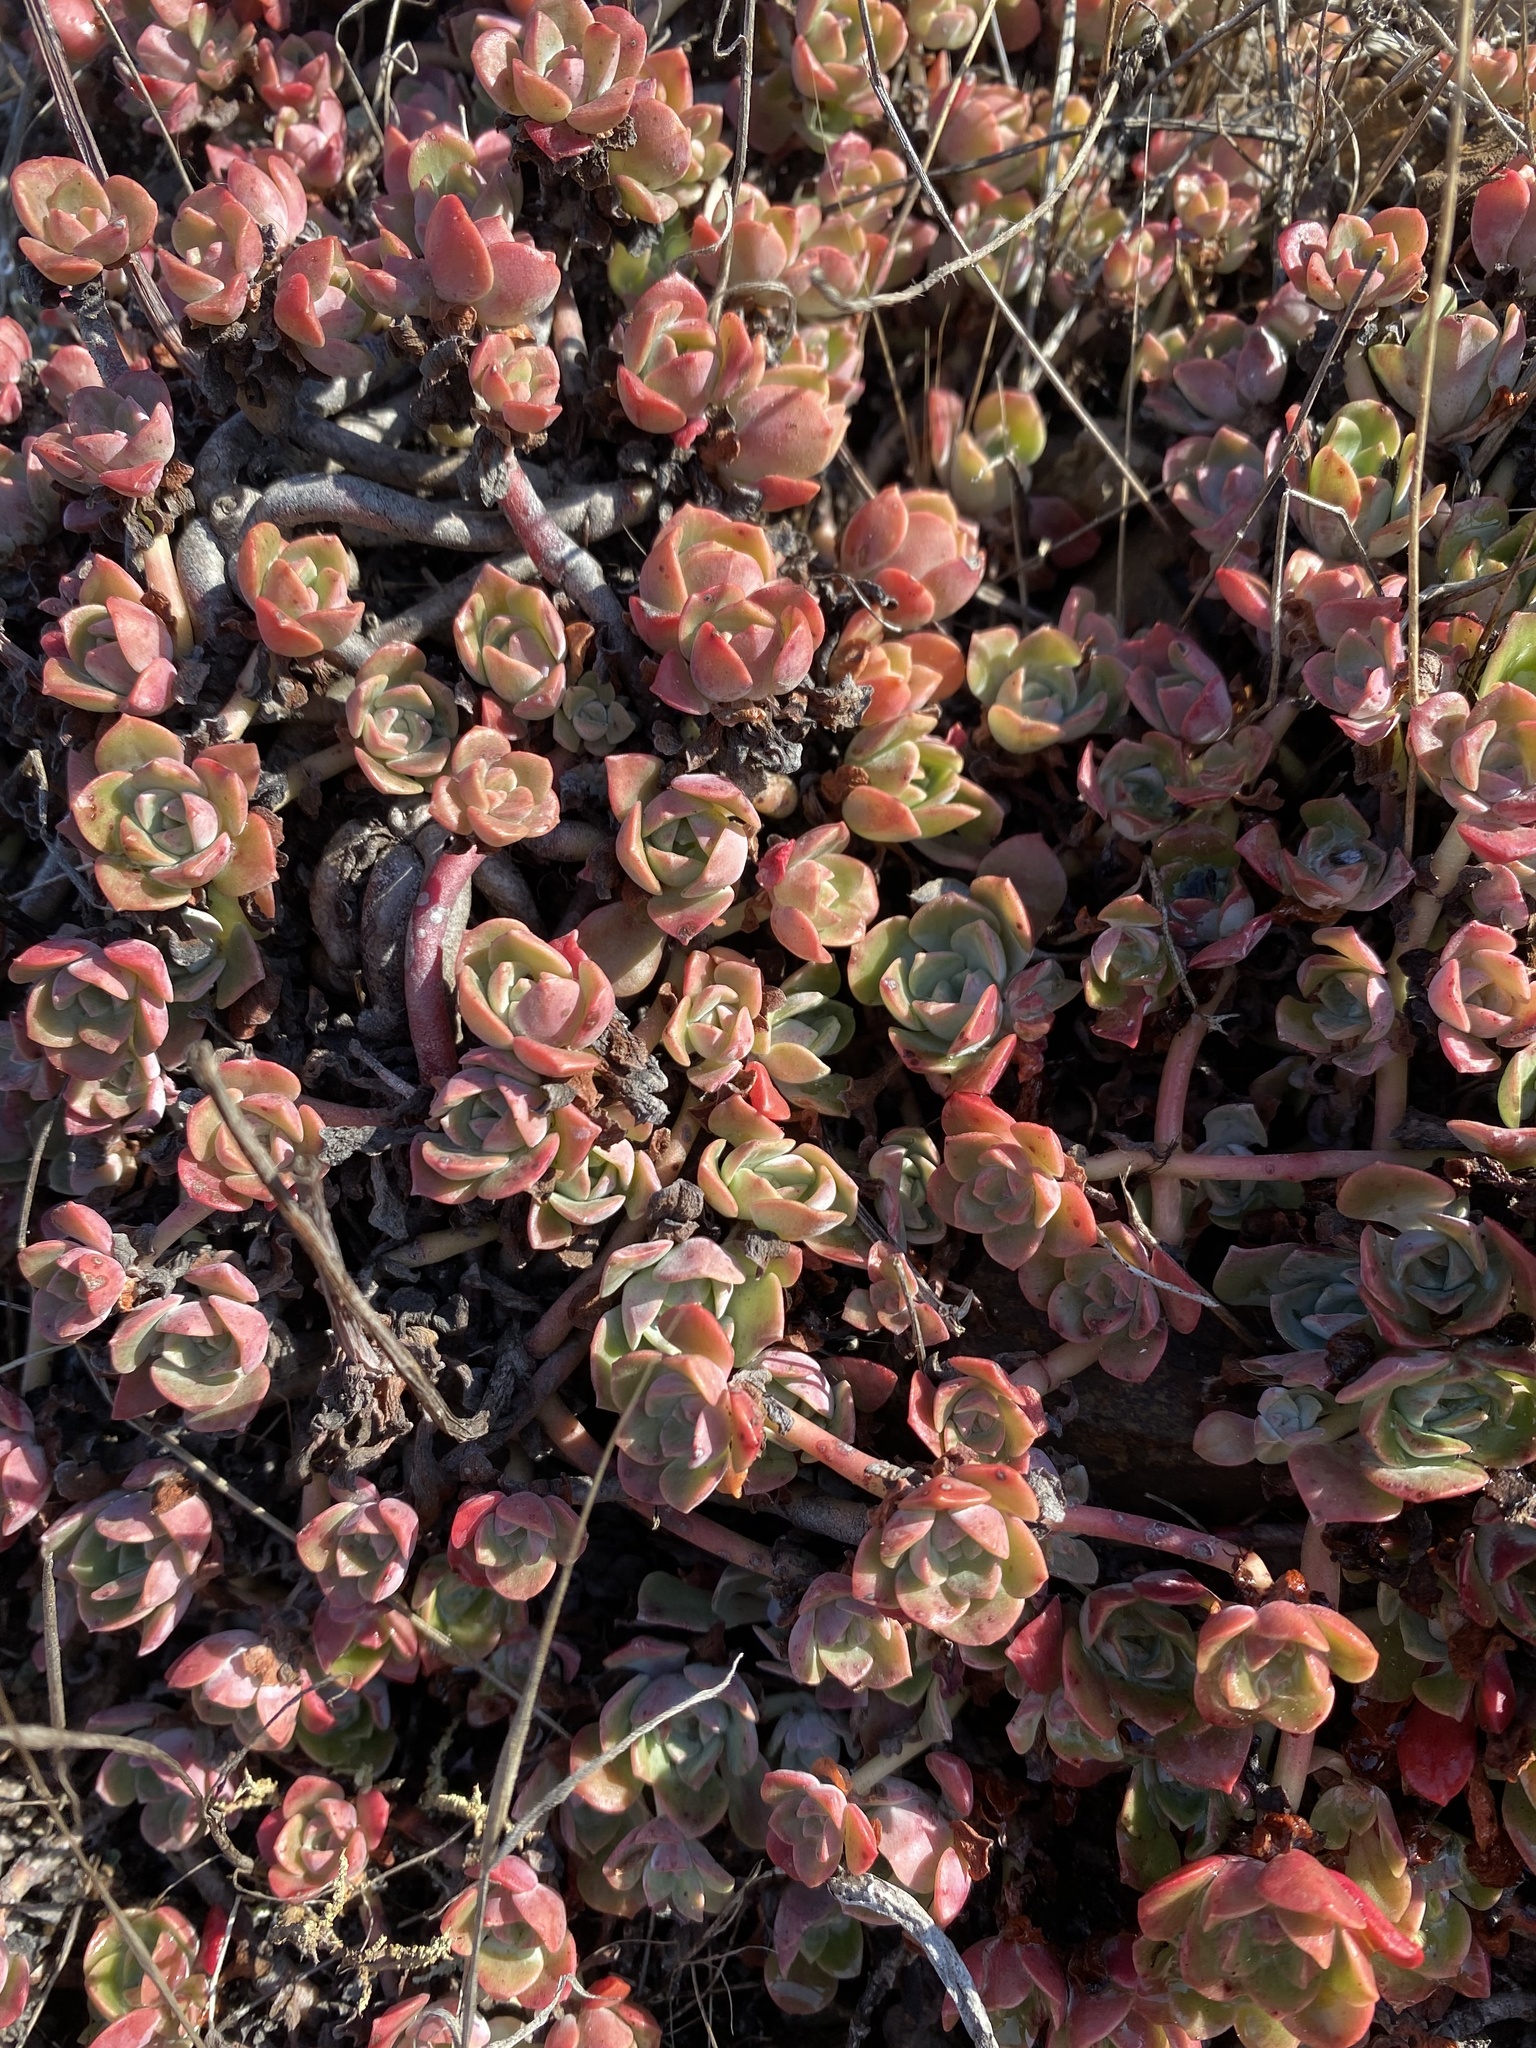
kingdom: Plantae
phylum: Tracheophyta
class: Magnoliopsida
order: Saxifragales
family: Crassulaceae
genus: Sedum
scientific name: Sedum spathulifolium
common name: Colorado stonecrop
